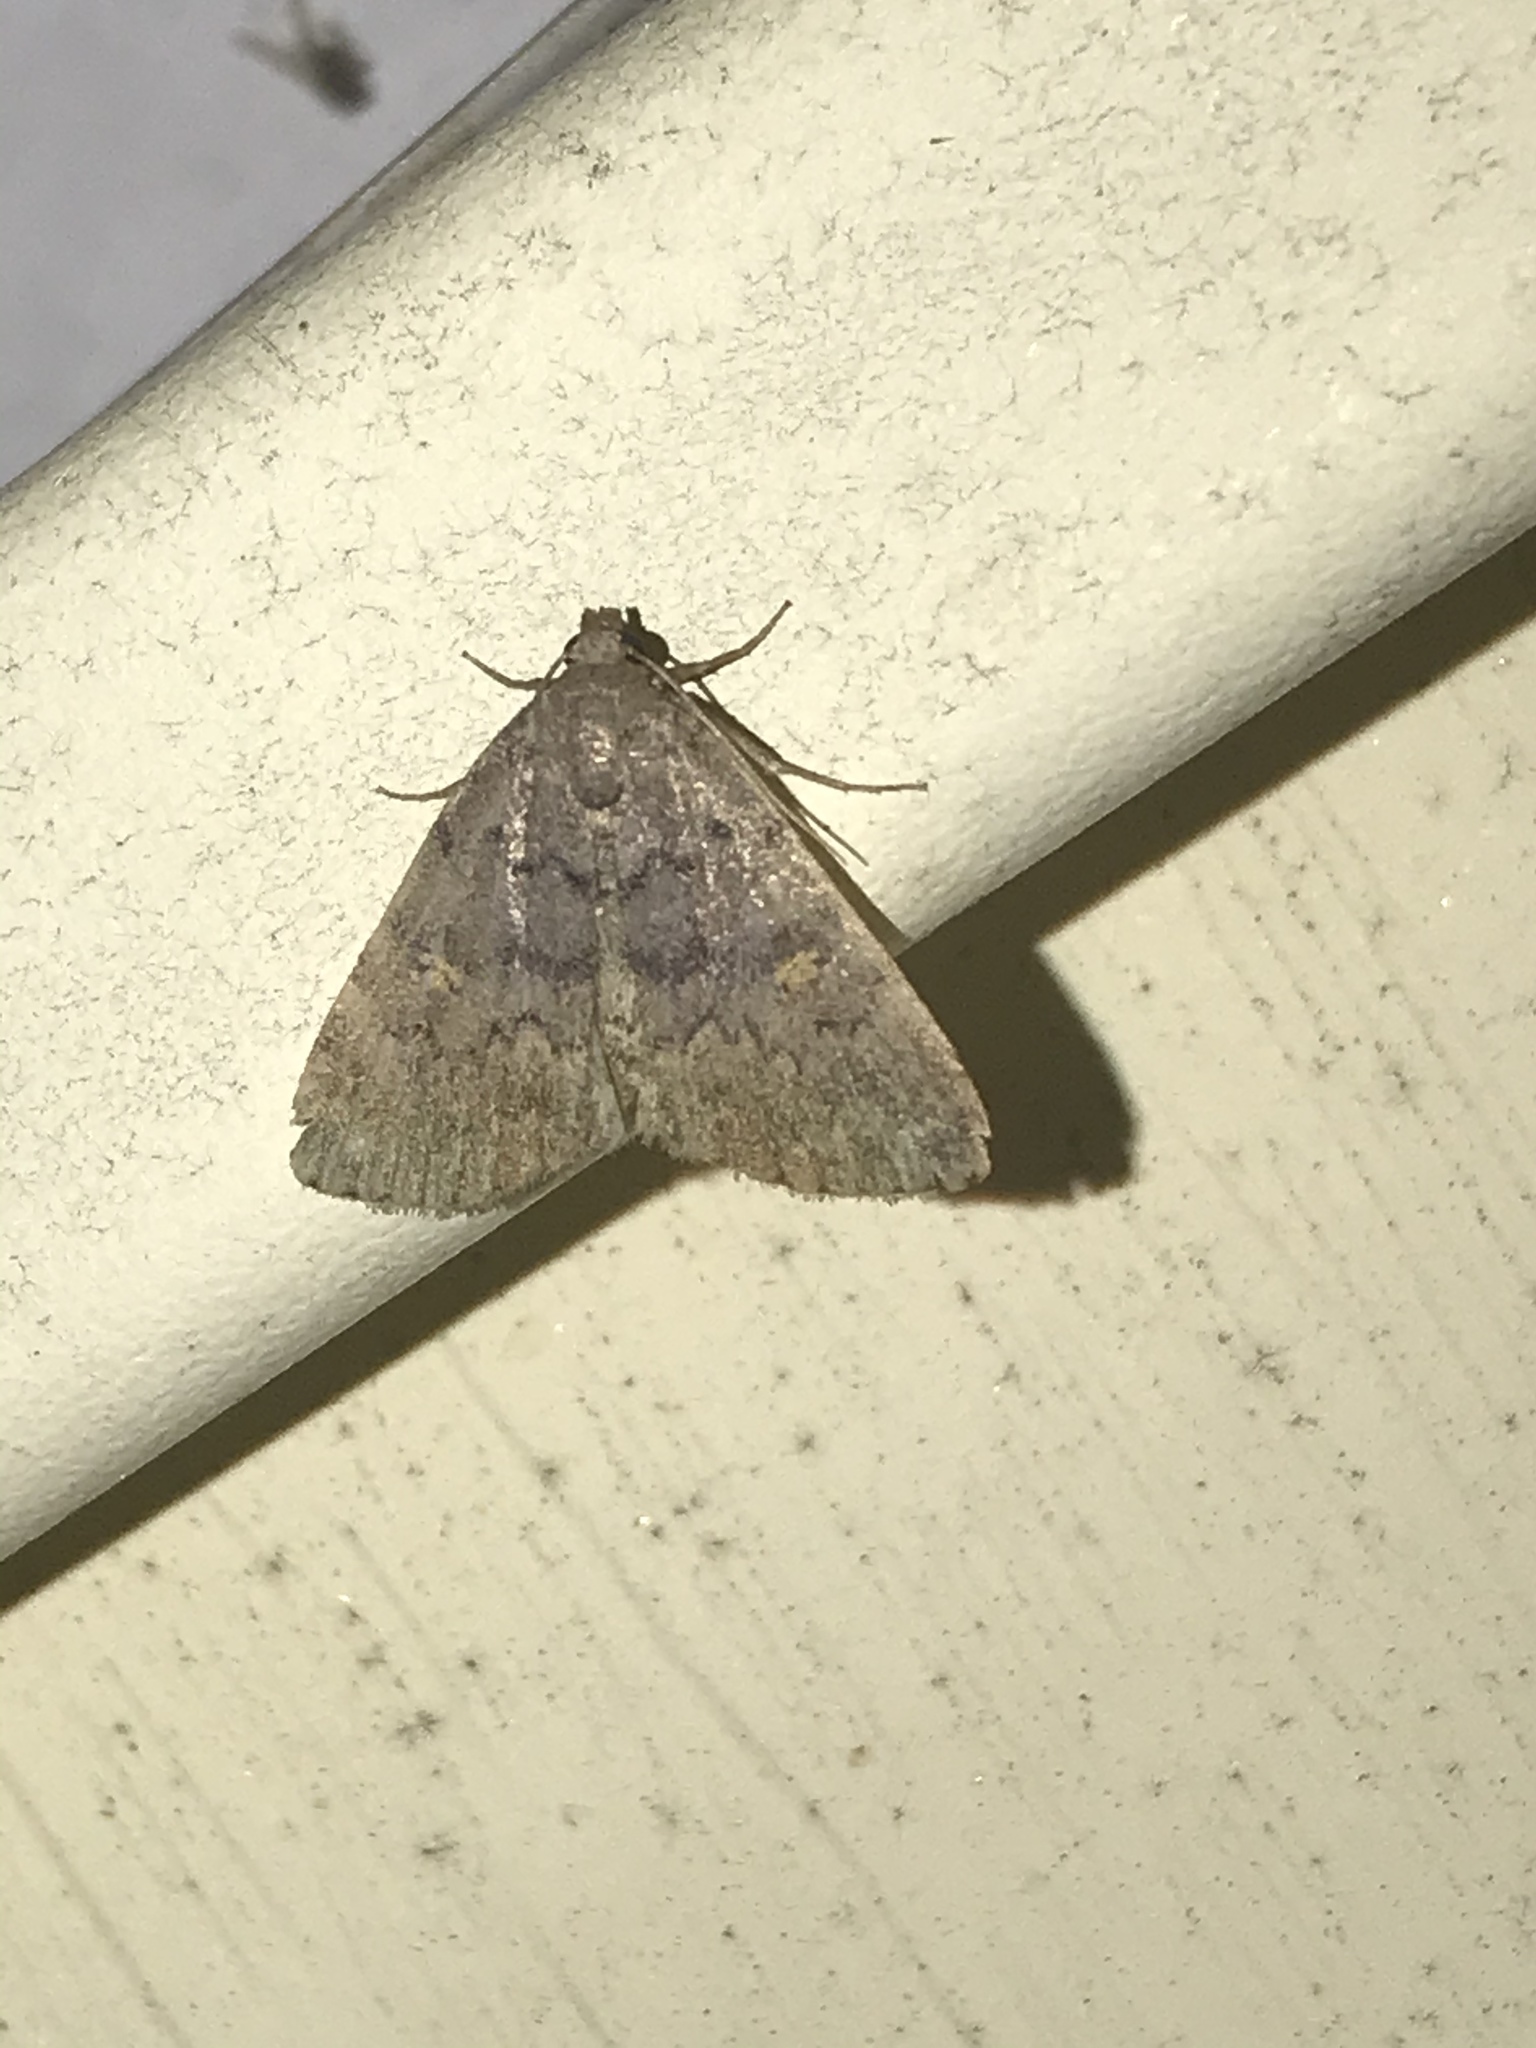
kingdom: Animalia
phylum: Arthropoda
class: Insecta
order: Lepidoptera
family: Erebidae
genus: Idia
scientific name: Idia aemula
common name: Common idia moth
